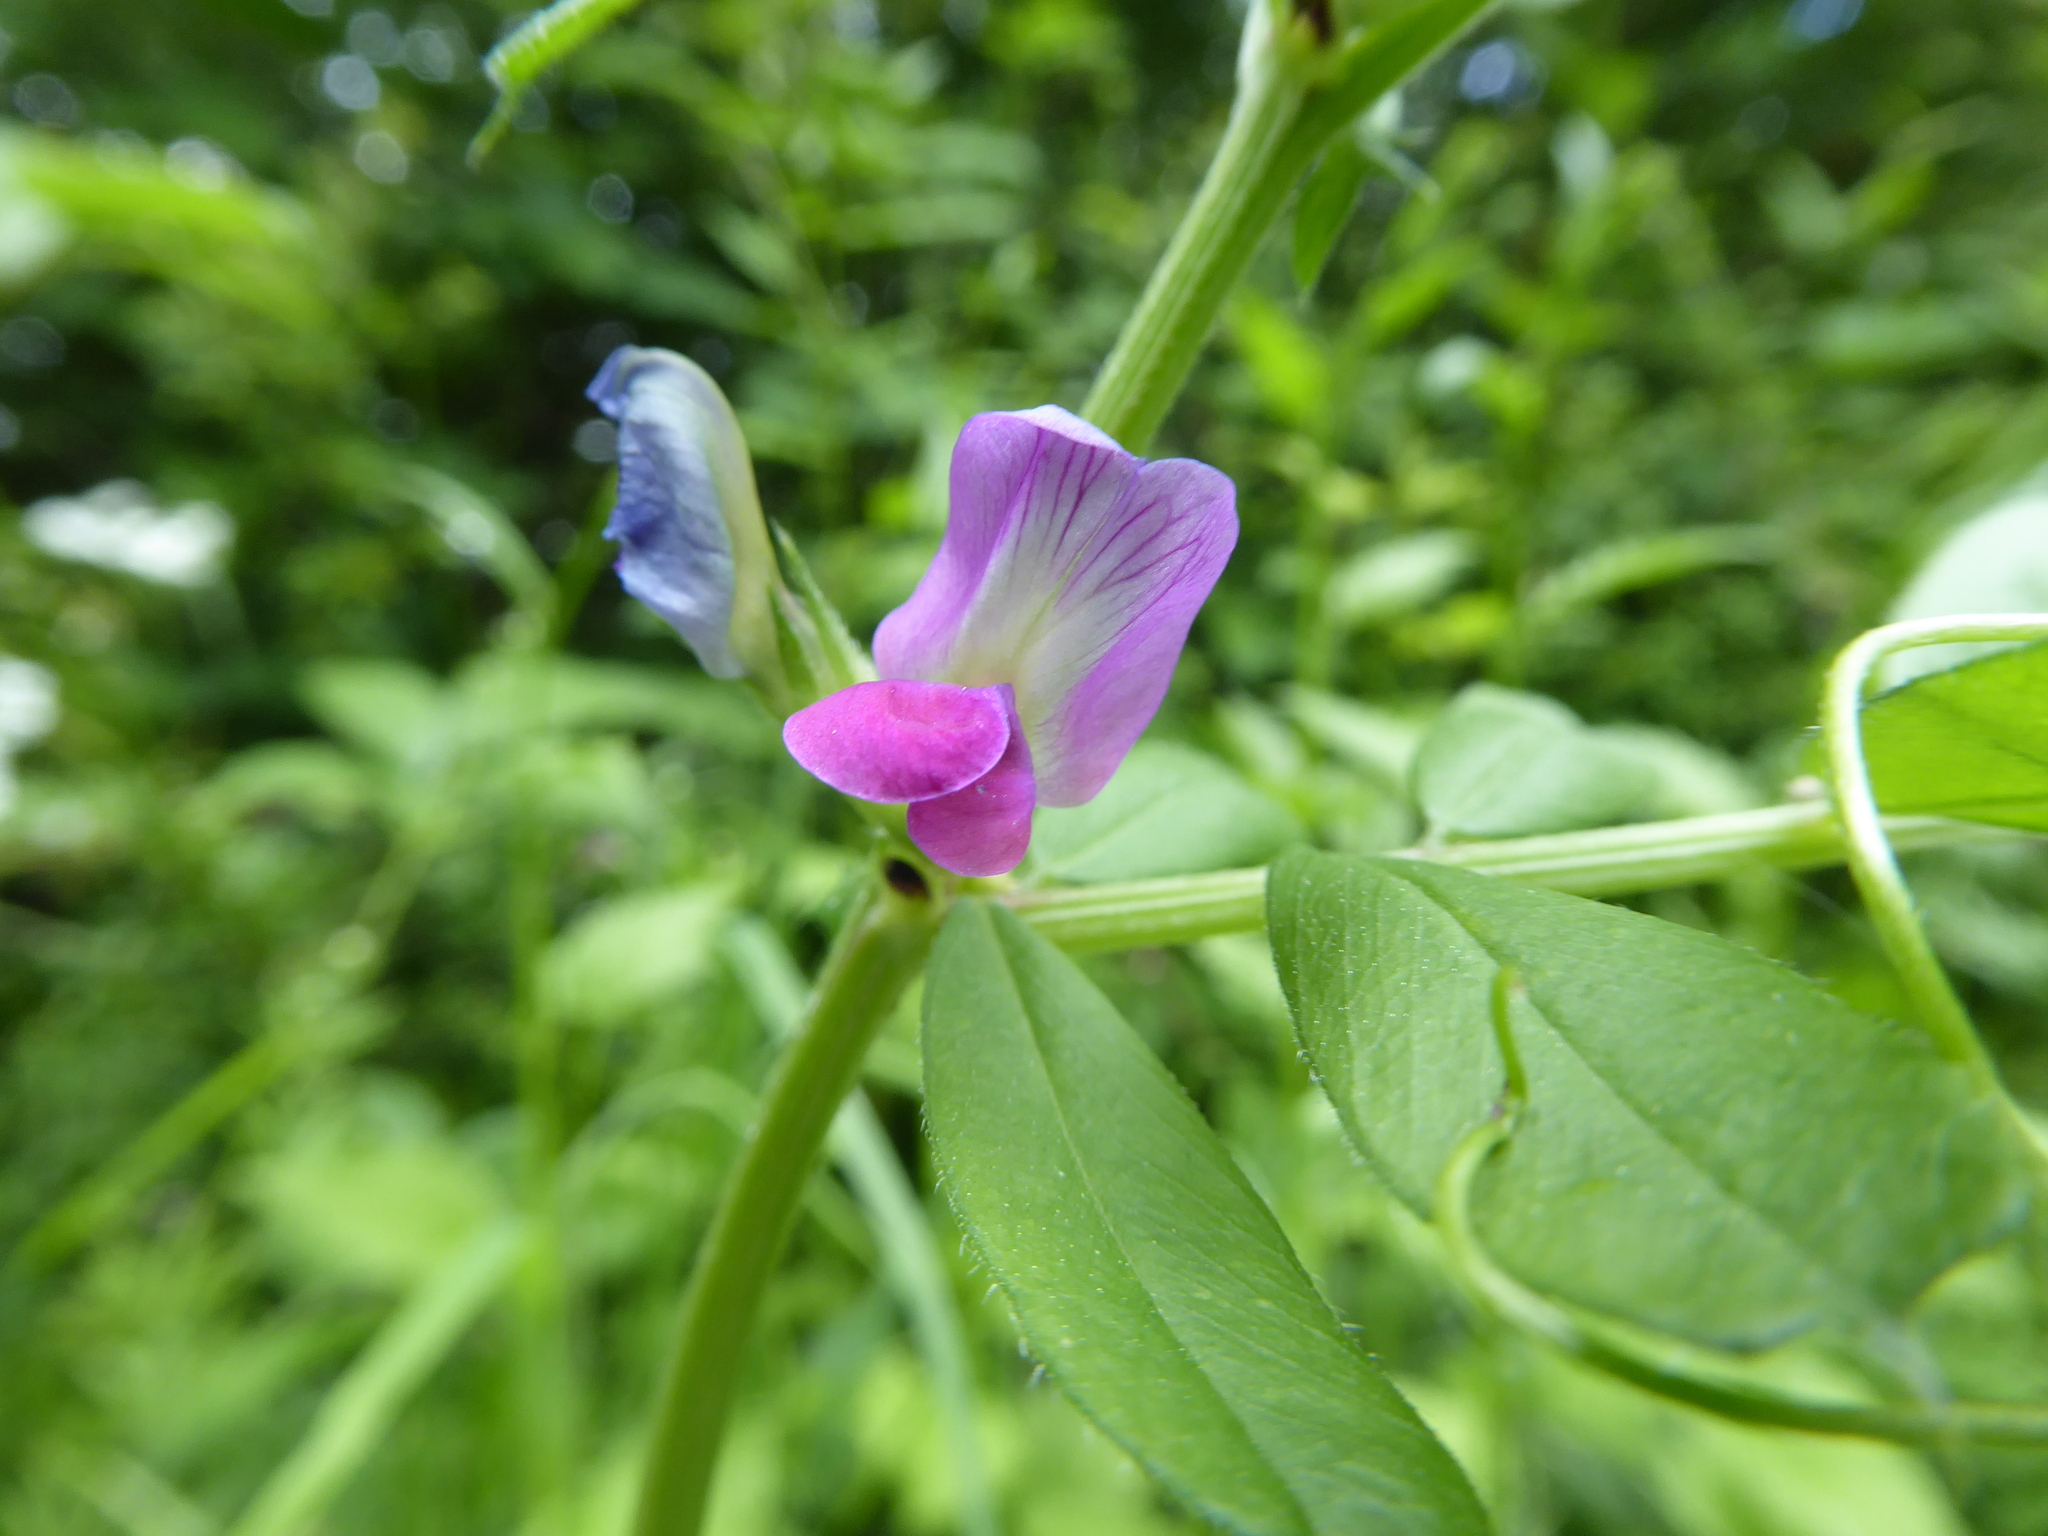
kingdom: Plantae
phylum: Tracheophyta
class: Magnoliopsida
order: Fabales
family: Fabaceae
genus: Vicia
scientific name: Vicia sativa
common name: Garden vetch
